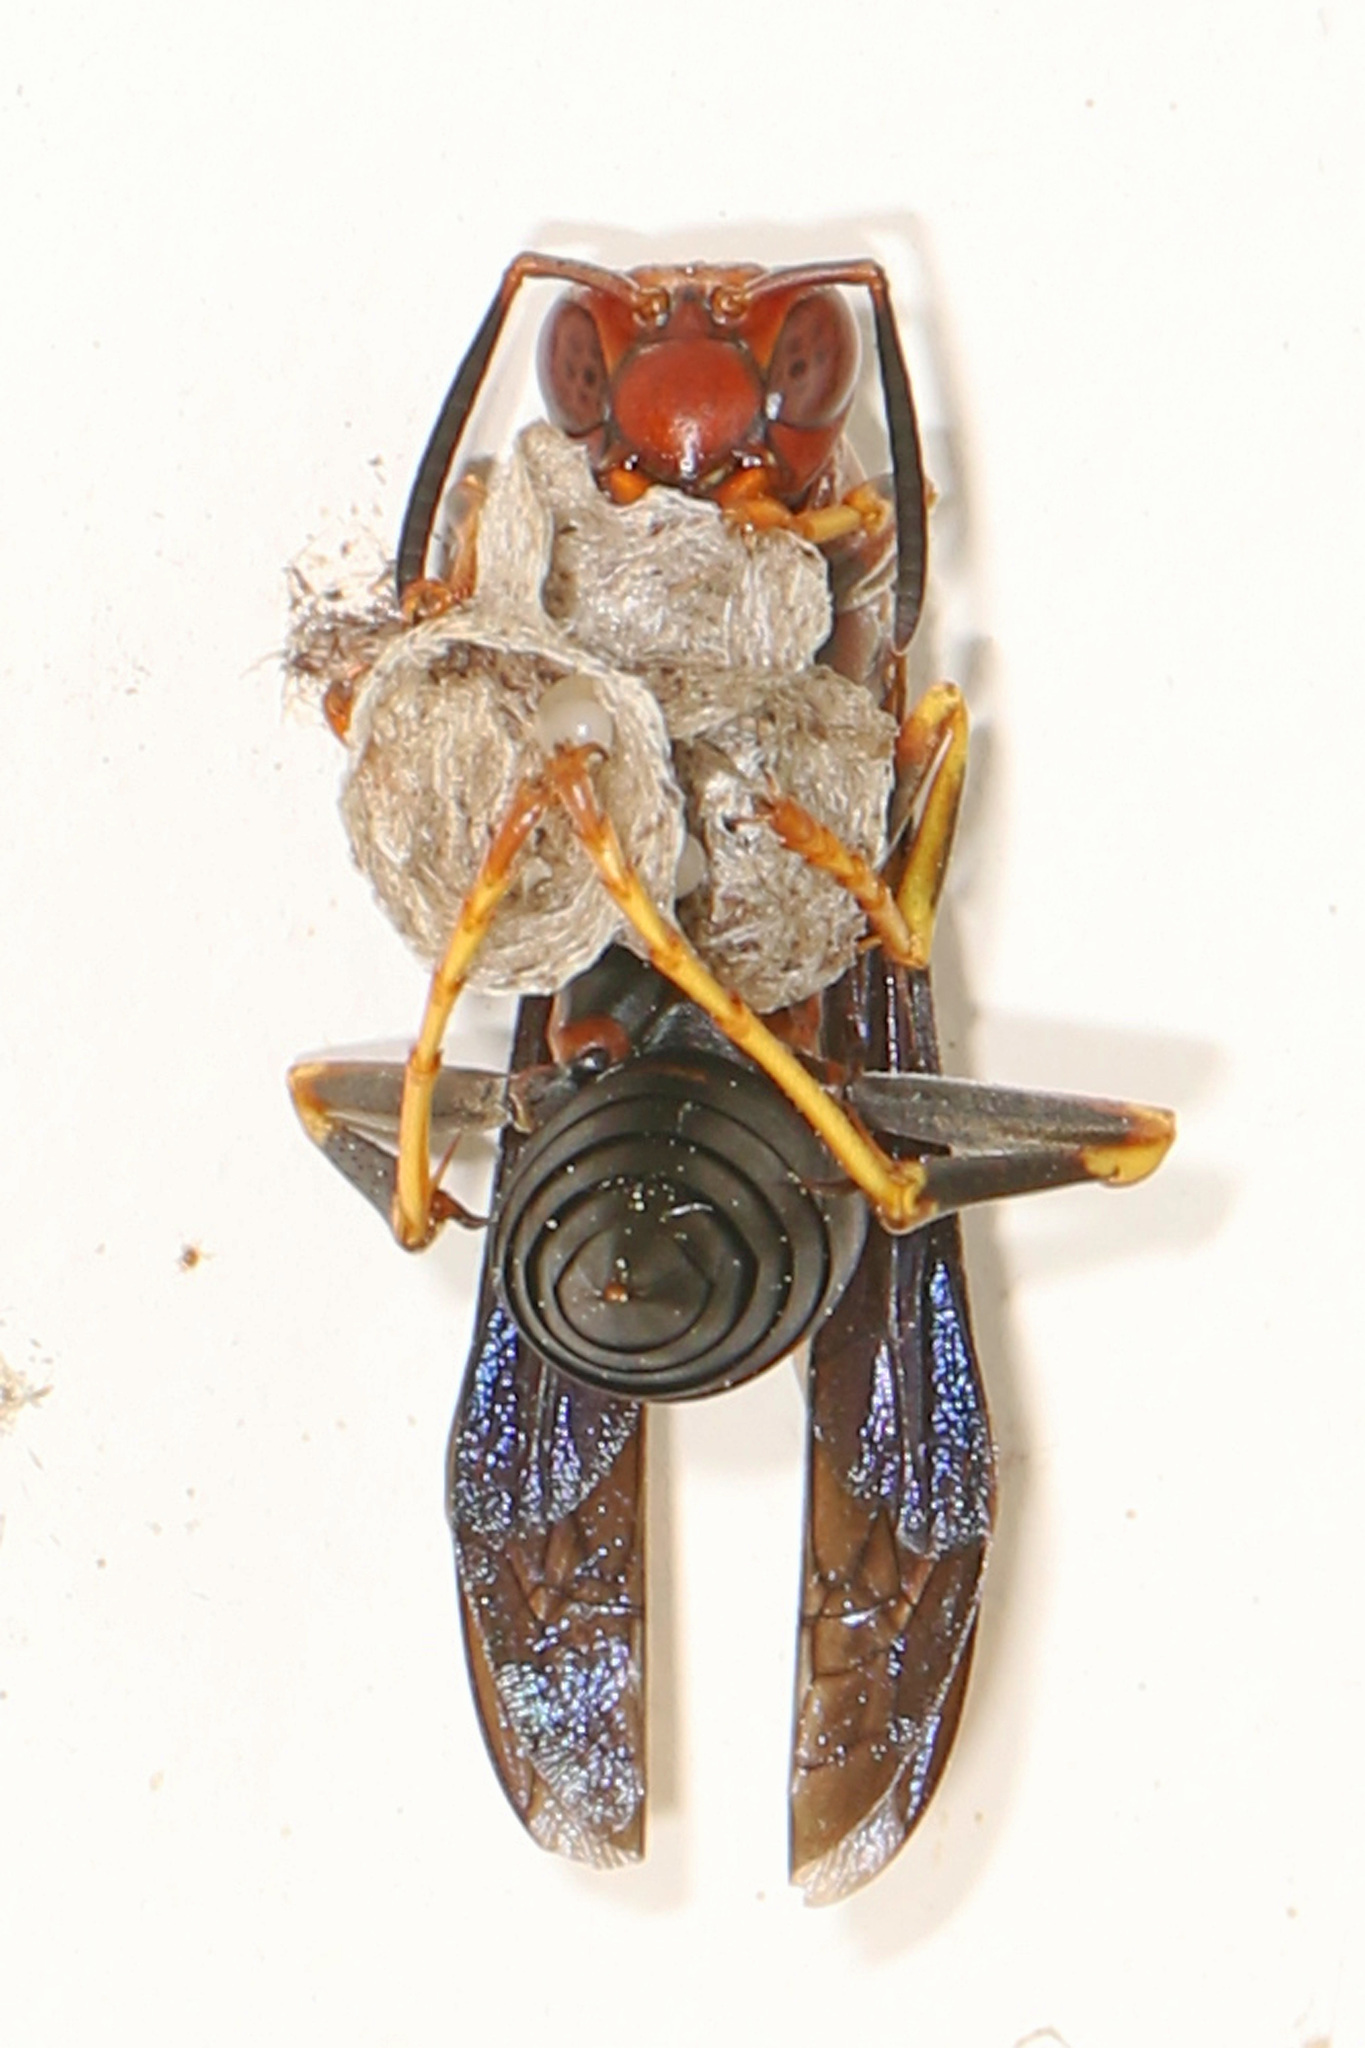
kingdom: Animalia
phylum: Arthropoda
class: Insecta
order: Hymenoptera
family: Eumenidae
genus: Polistes
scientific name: Polistes metricus
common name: Metric paper wasp
